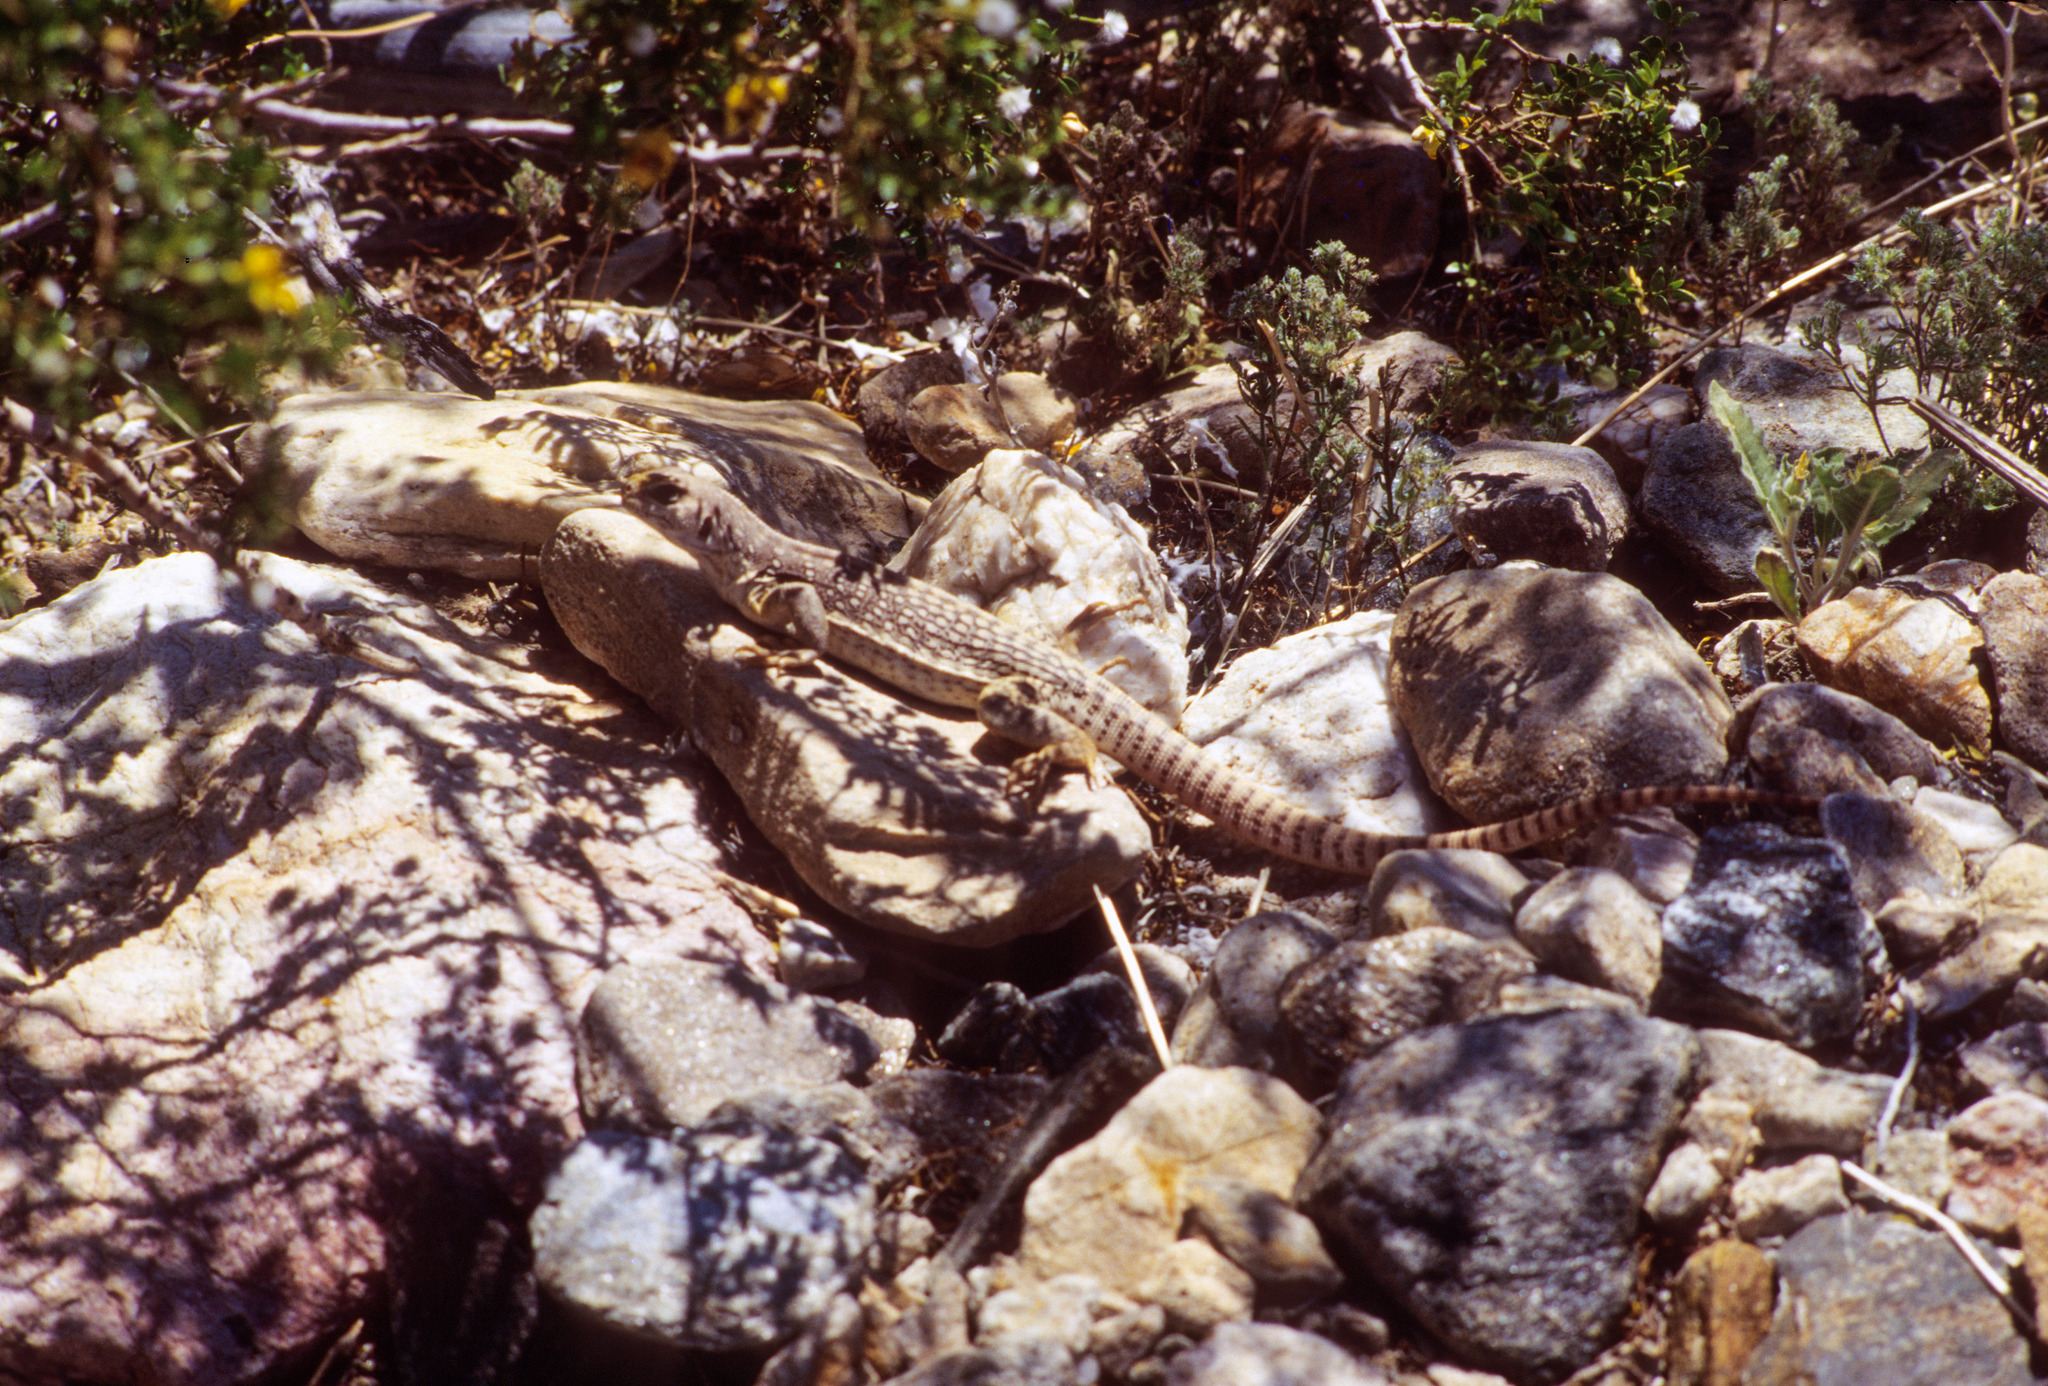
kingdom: Animalia
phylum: Chordata
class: Squamata
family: Iguanidae
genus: Dipsosaurus
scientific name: Dipsosaurus dorsalis
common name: Desert iguana
